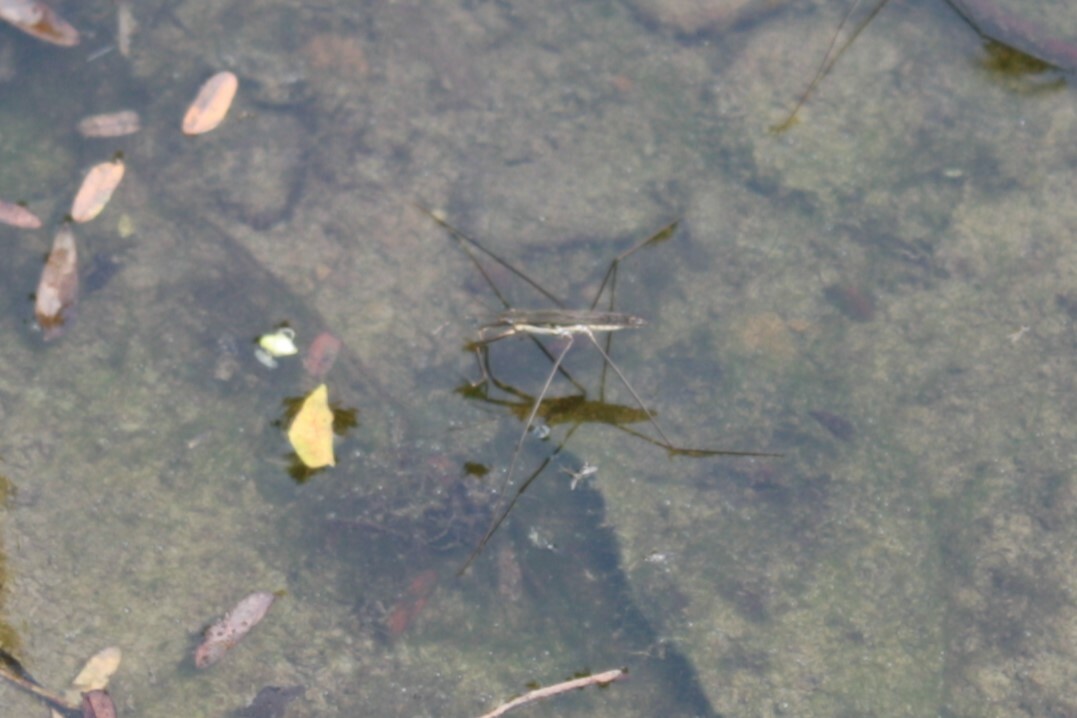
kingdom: Animalia
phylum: Arthropoda
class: Insecta
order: Hemiptera
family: Gerridae
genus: Aquarius
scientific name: Aquarius paludum
